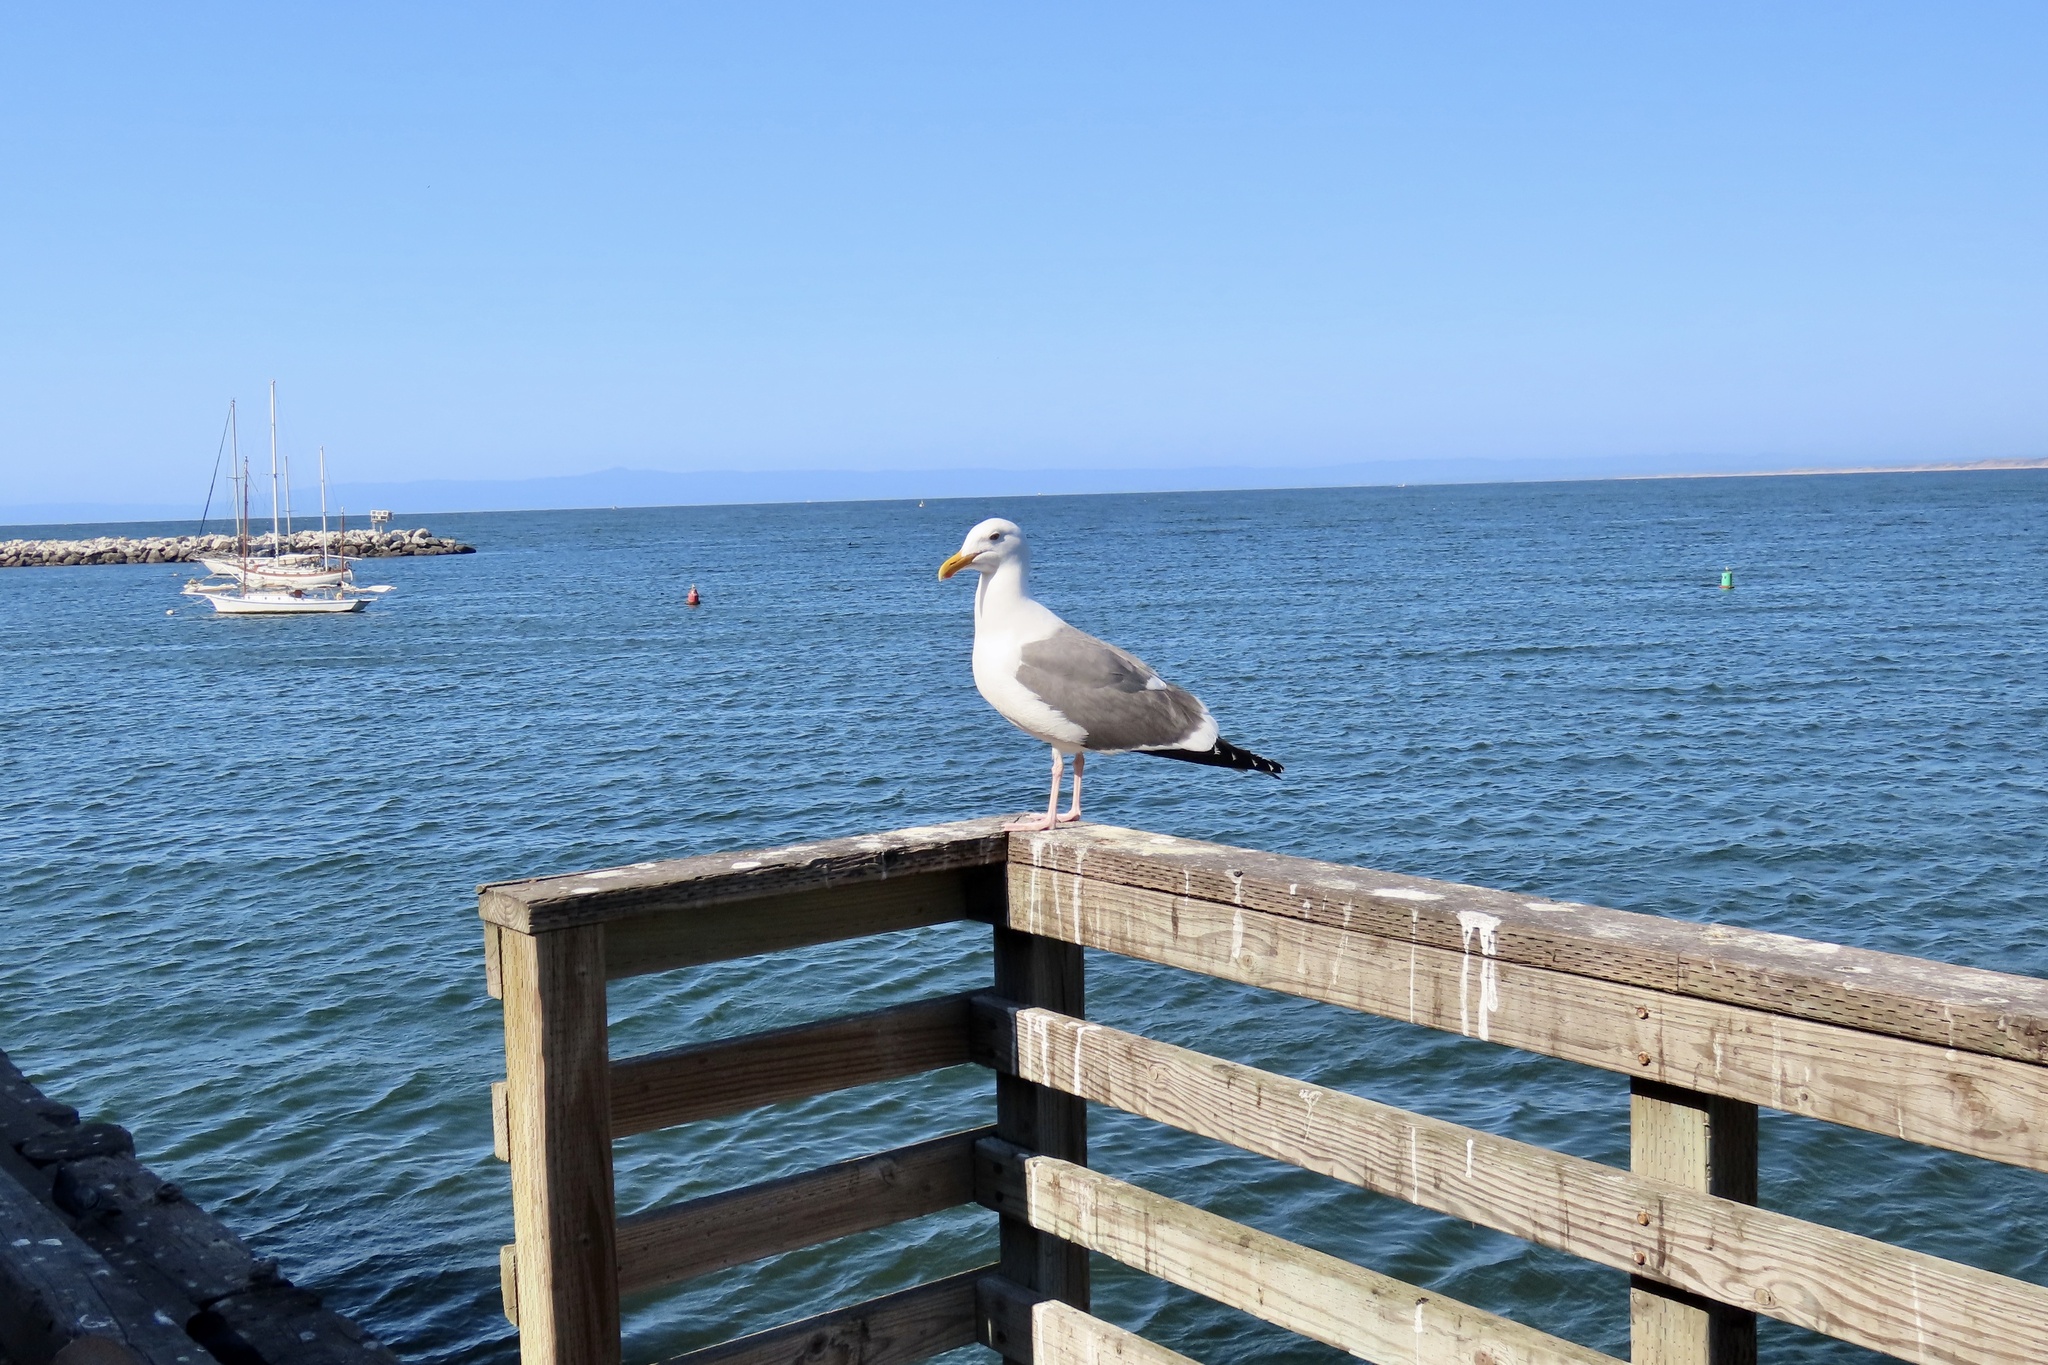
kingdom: Animalia
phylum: Chordata
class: Aves
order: Charadriiformes
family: Laridae
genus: Larus
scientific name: Larus occidentalis
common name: Western gull
